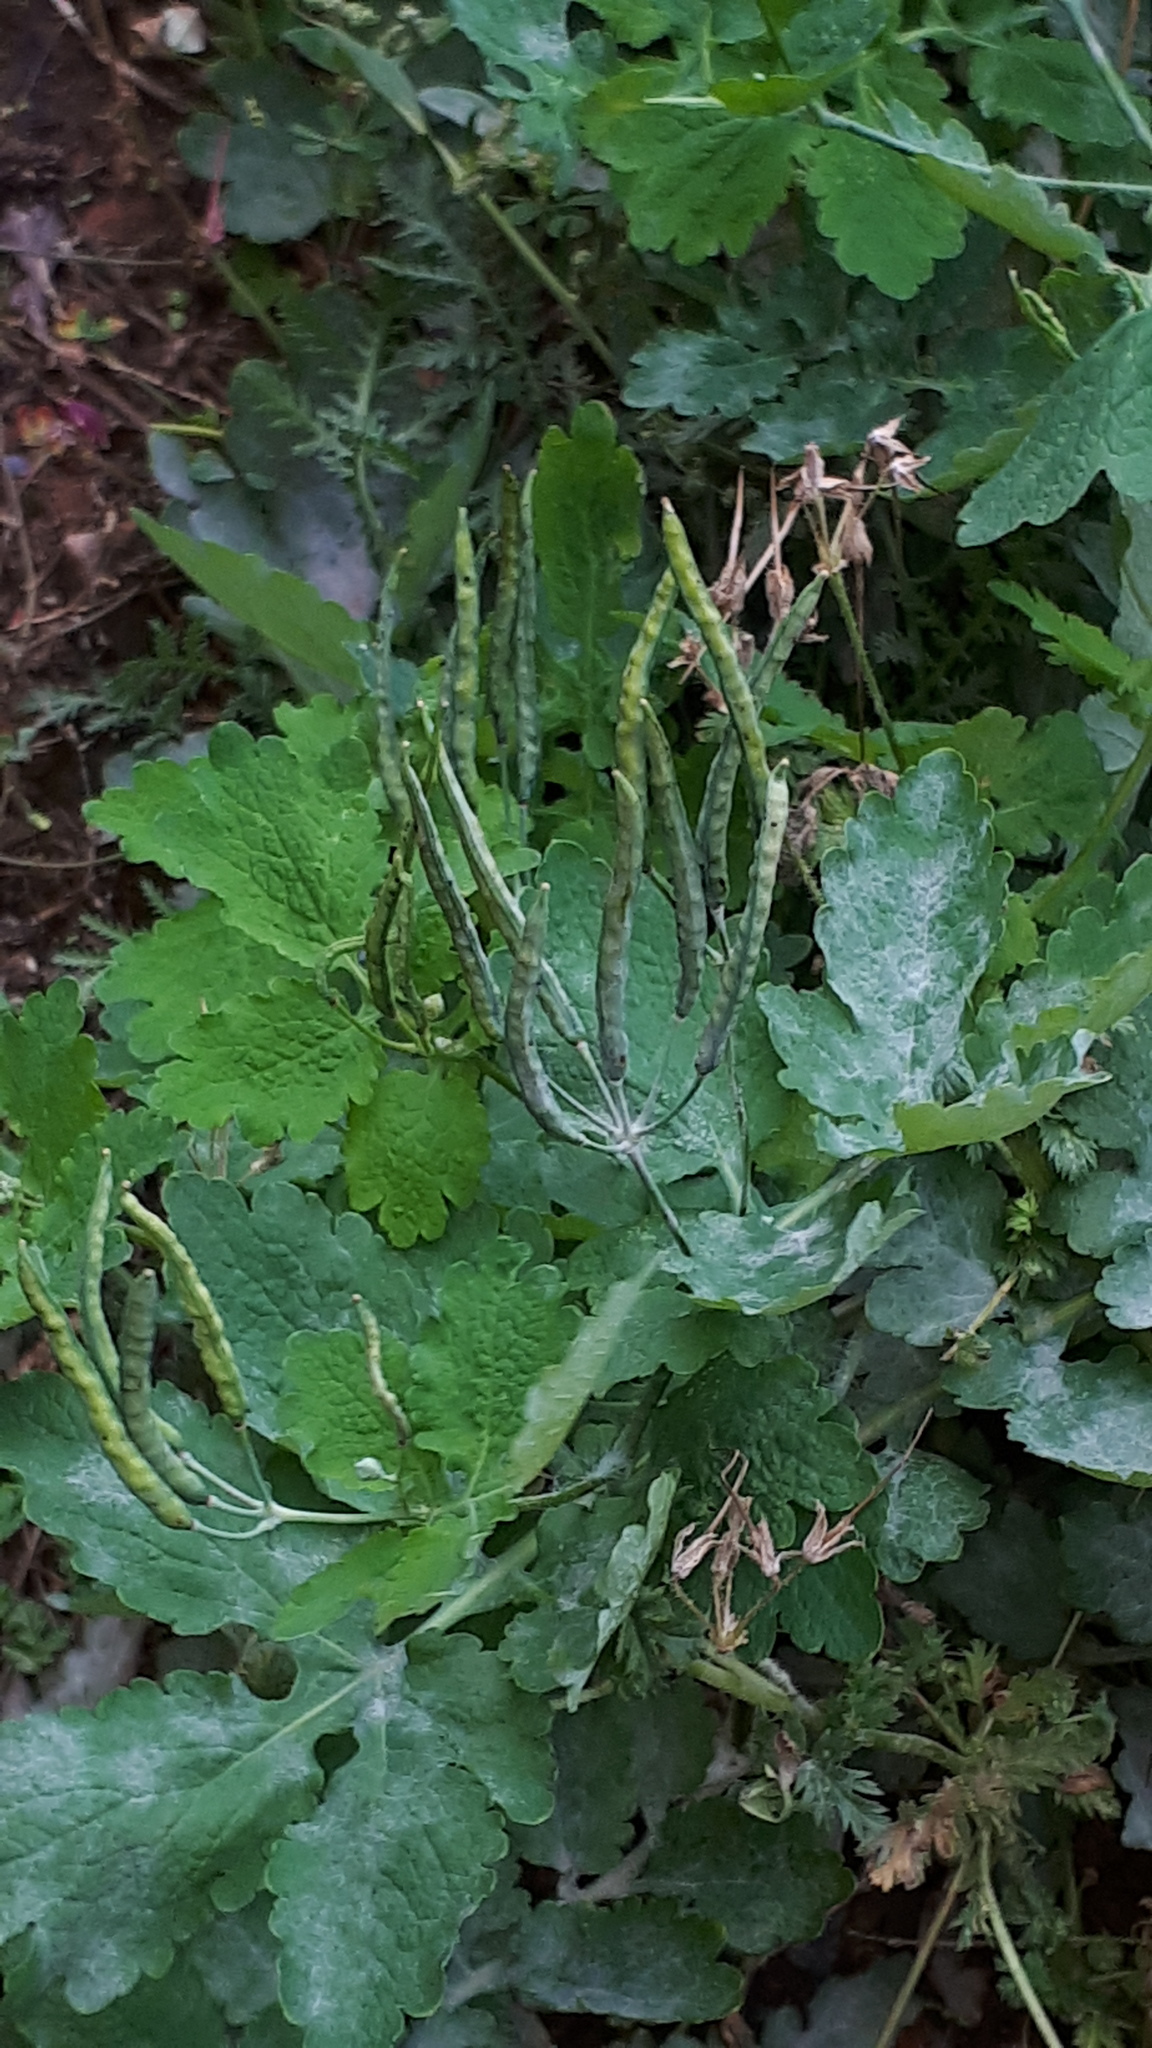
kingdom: Plantae
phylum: Tracheophyta
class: Magnoliopsida
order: Ranunculales
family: Papaveraceae
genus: Chelidonium
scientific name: Chelidonium majus
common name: Greater celandine
